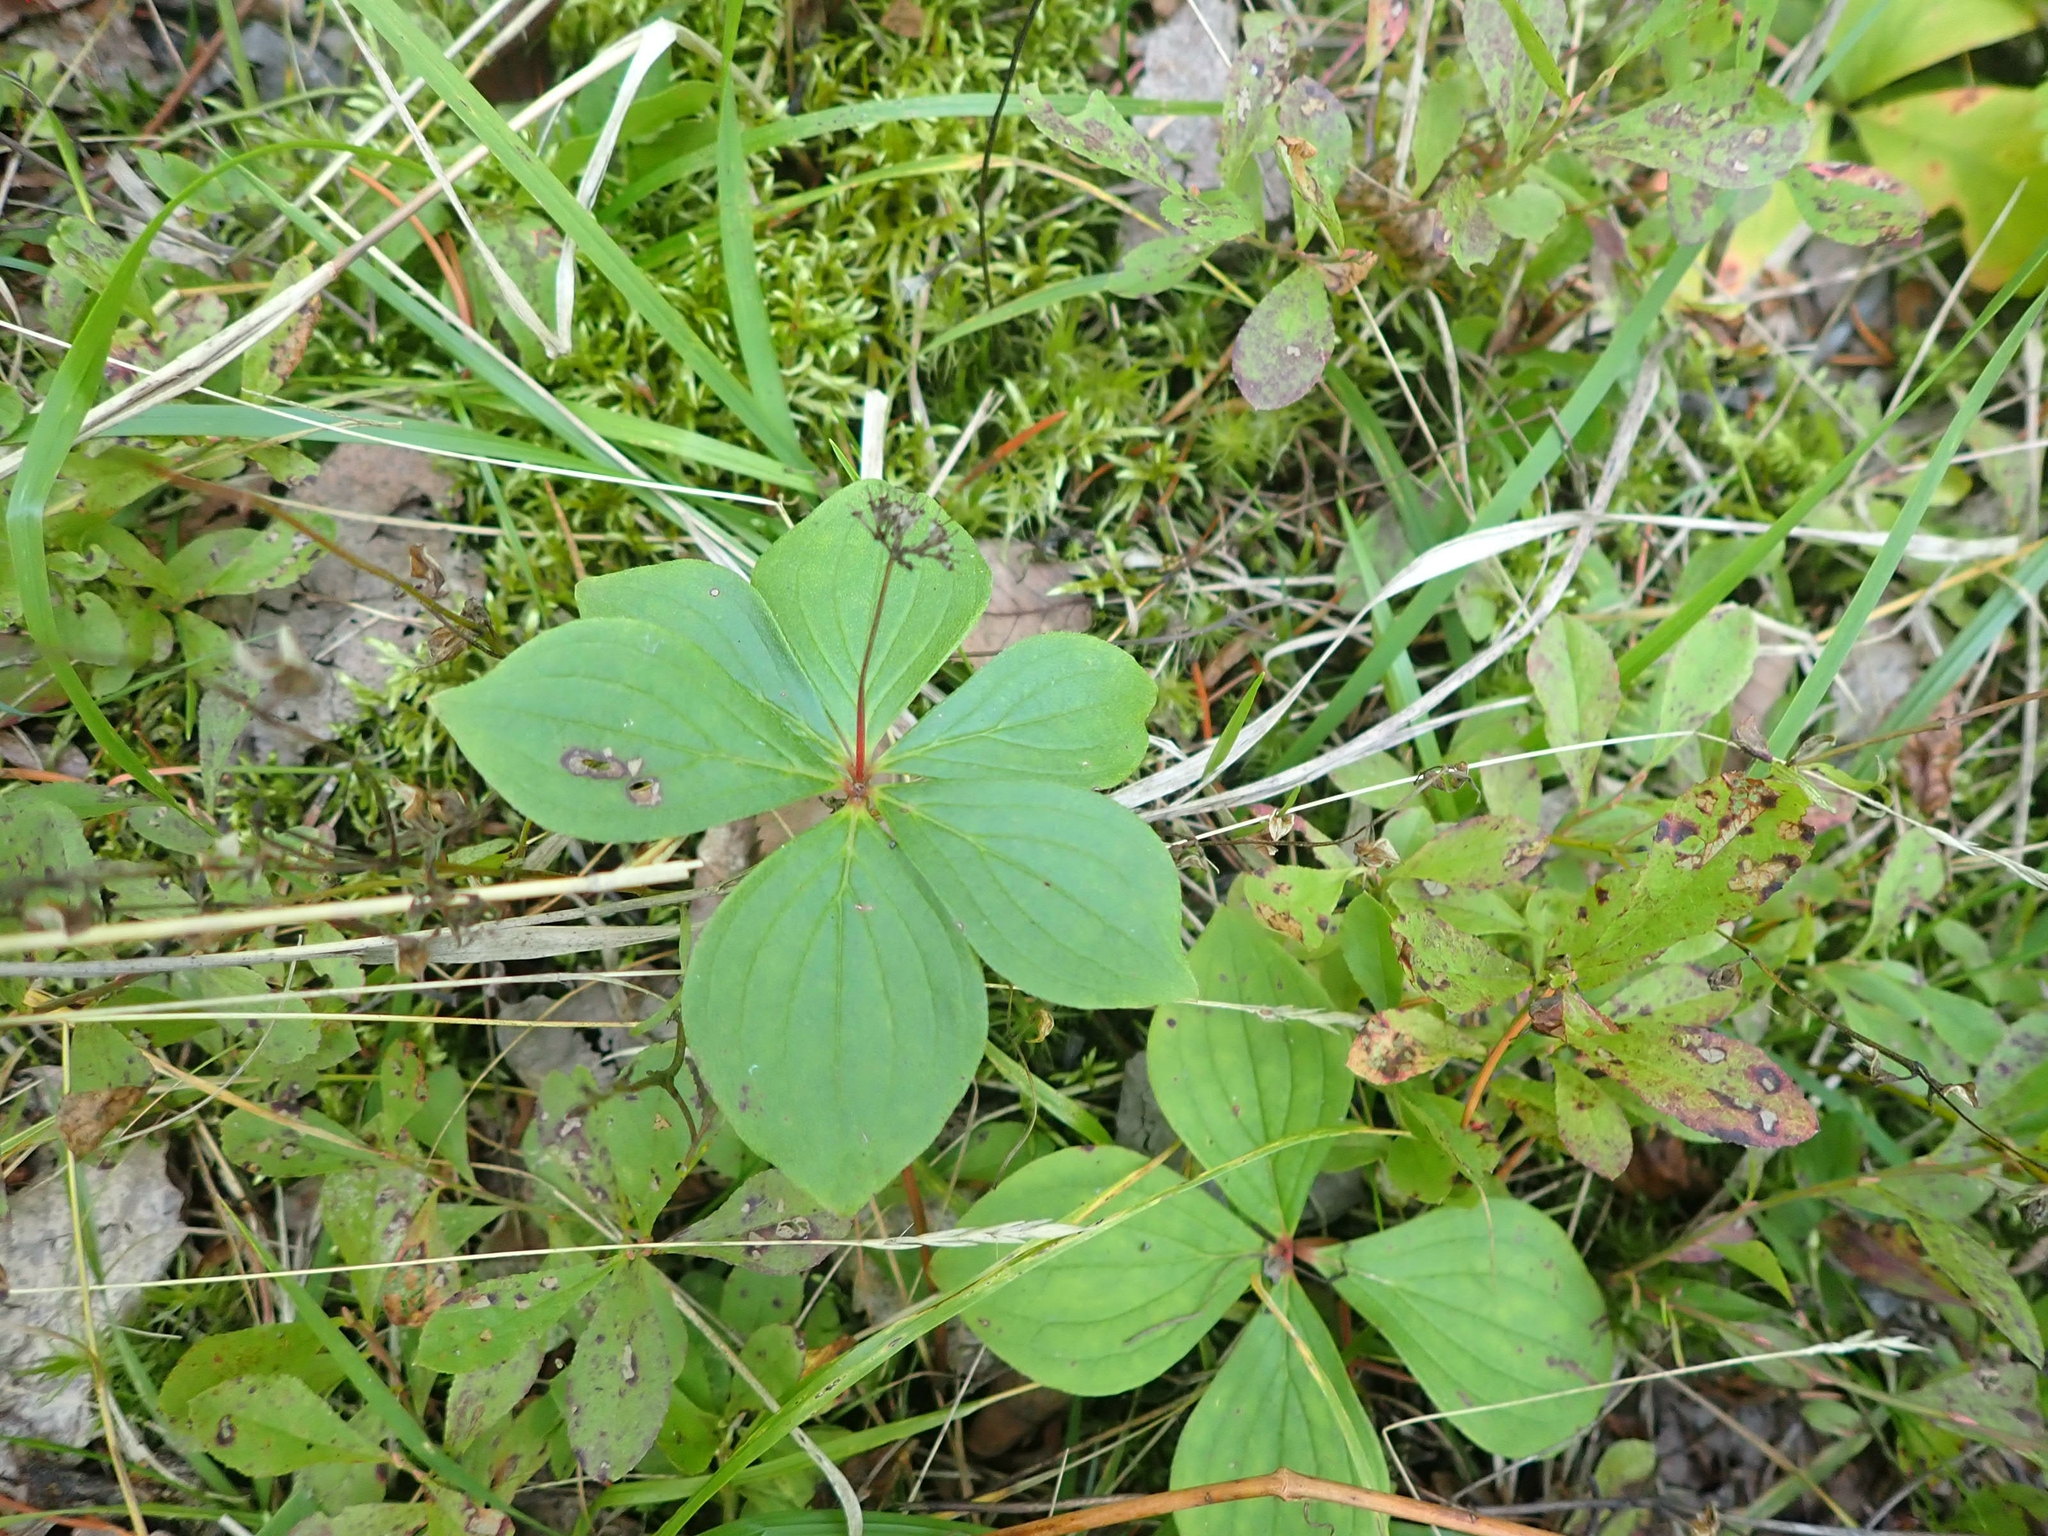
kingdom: Plantae
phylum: Tracheophyta
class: Magnoliopsida
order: Cornales
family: Cornaceae
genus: Cornus
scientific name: Cornus canadensis
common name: Creeping dogwood
